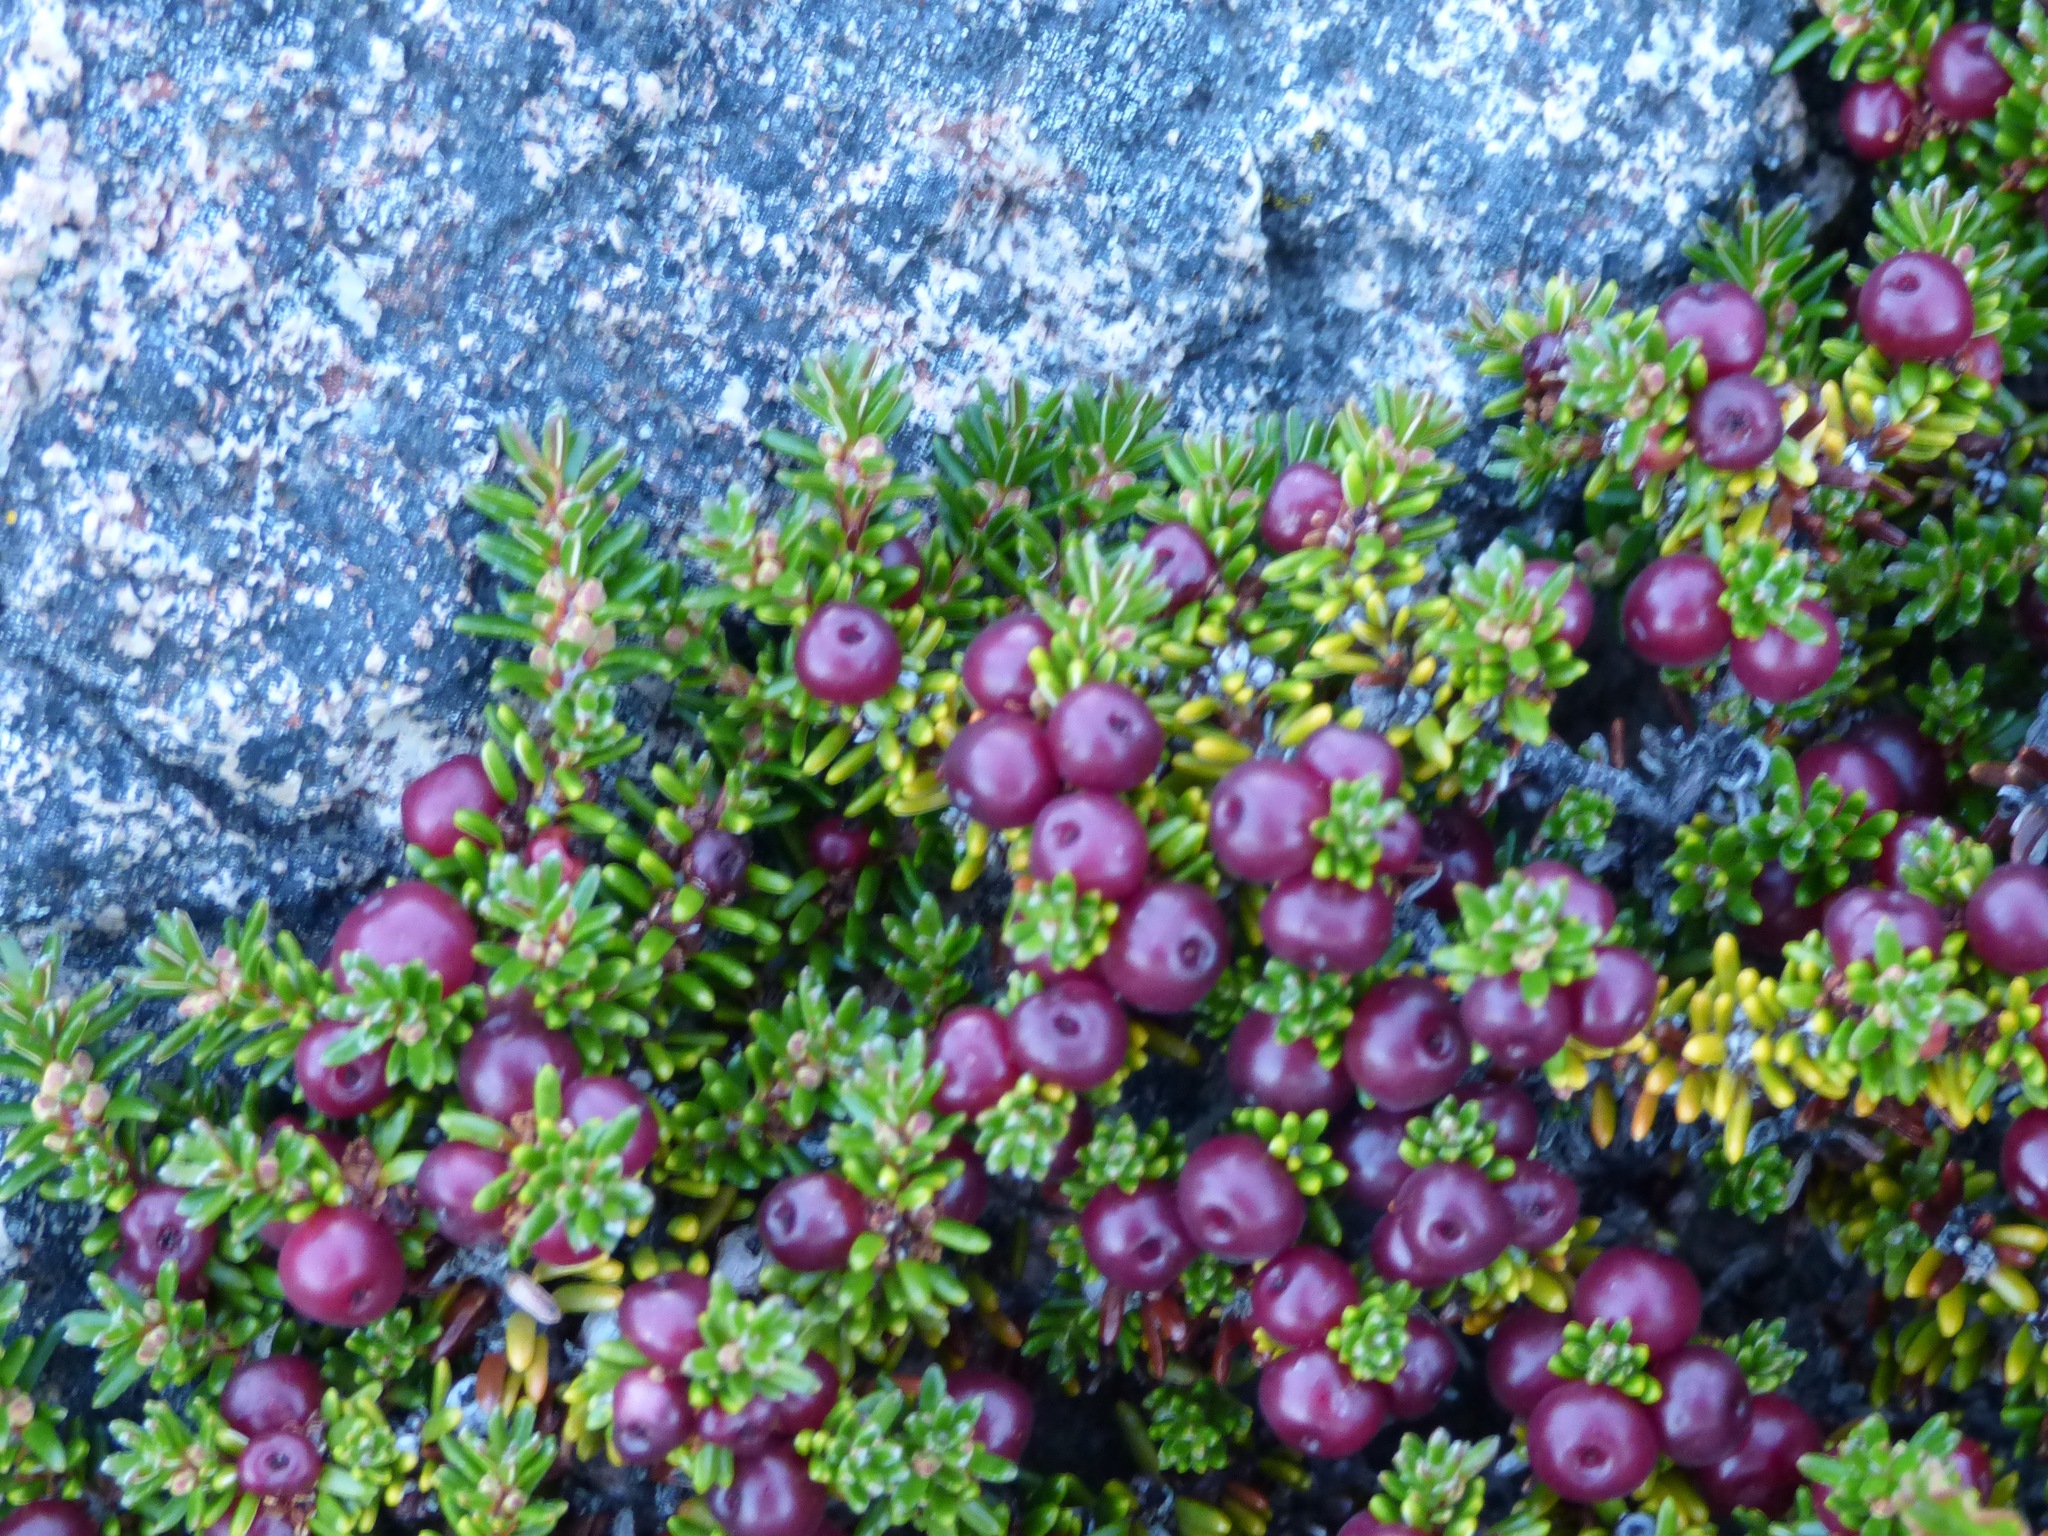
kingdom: Plantae
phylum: Tracheophyta
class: Magnoliopsida
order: Ericales
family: Ericaceae
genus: Empetrum
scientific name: Empetrum rubrum
